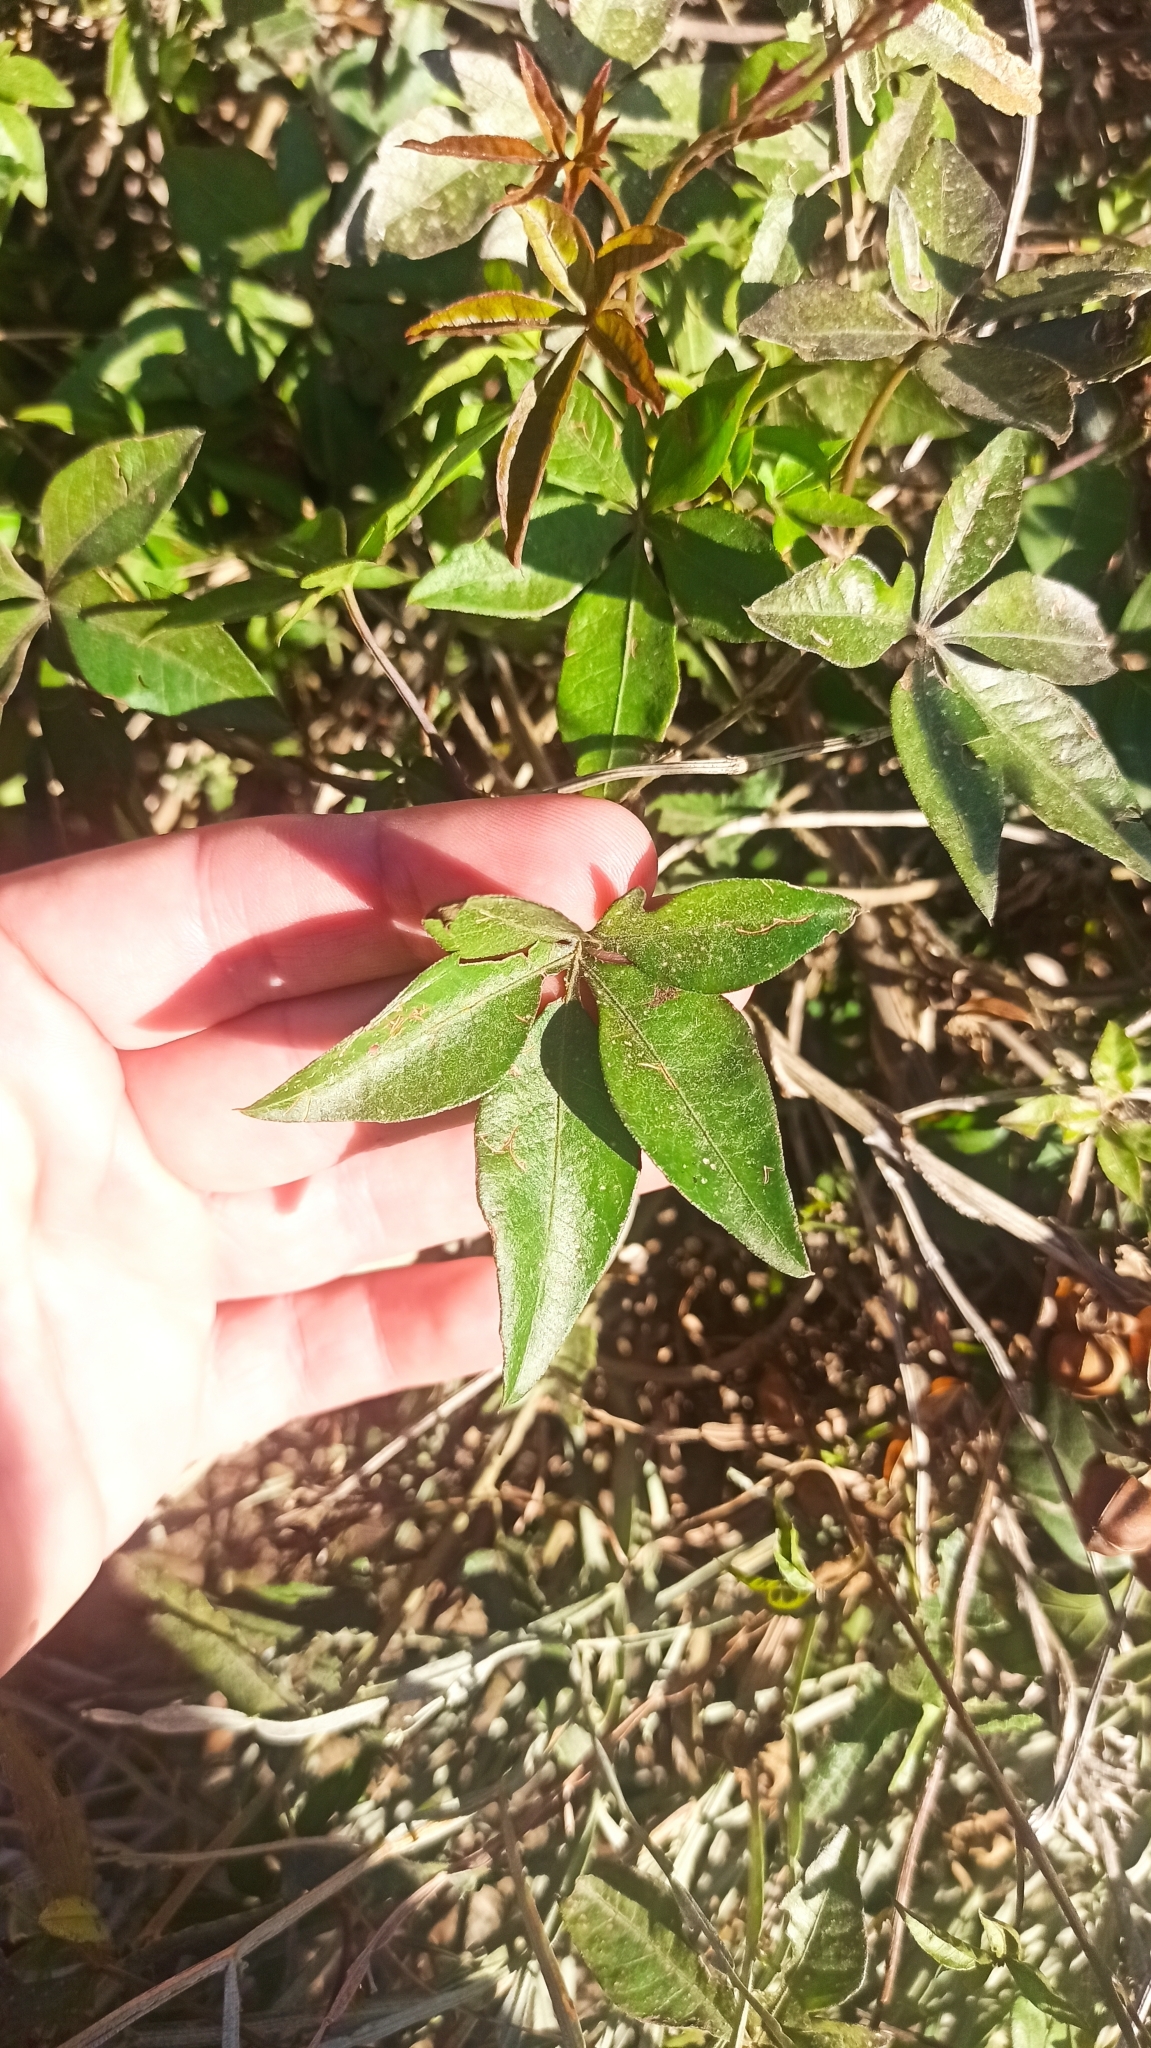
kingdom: Plantae
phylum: Tracheophyta
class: Magnoliopsida
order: Solanales
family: Convolvulaceae
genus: Ipomoea
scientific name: Ipomoea cairica
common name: Mile a minute vine
